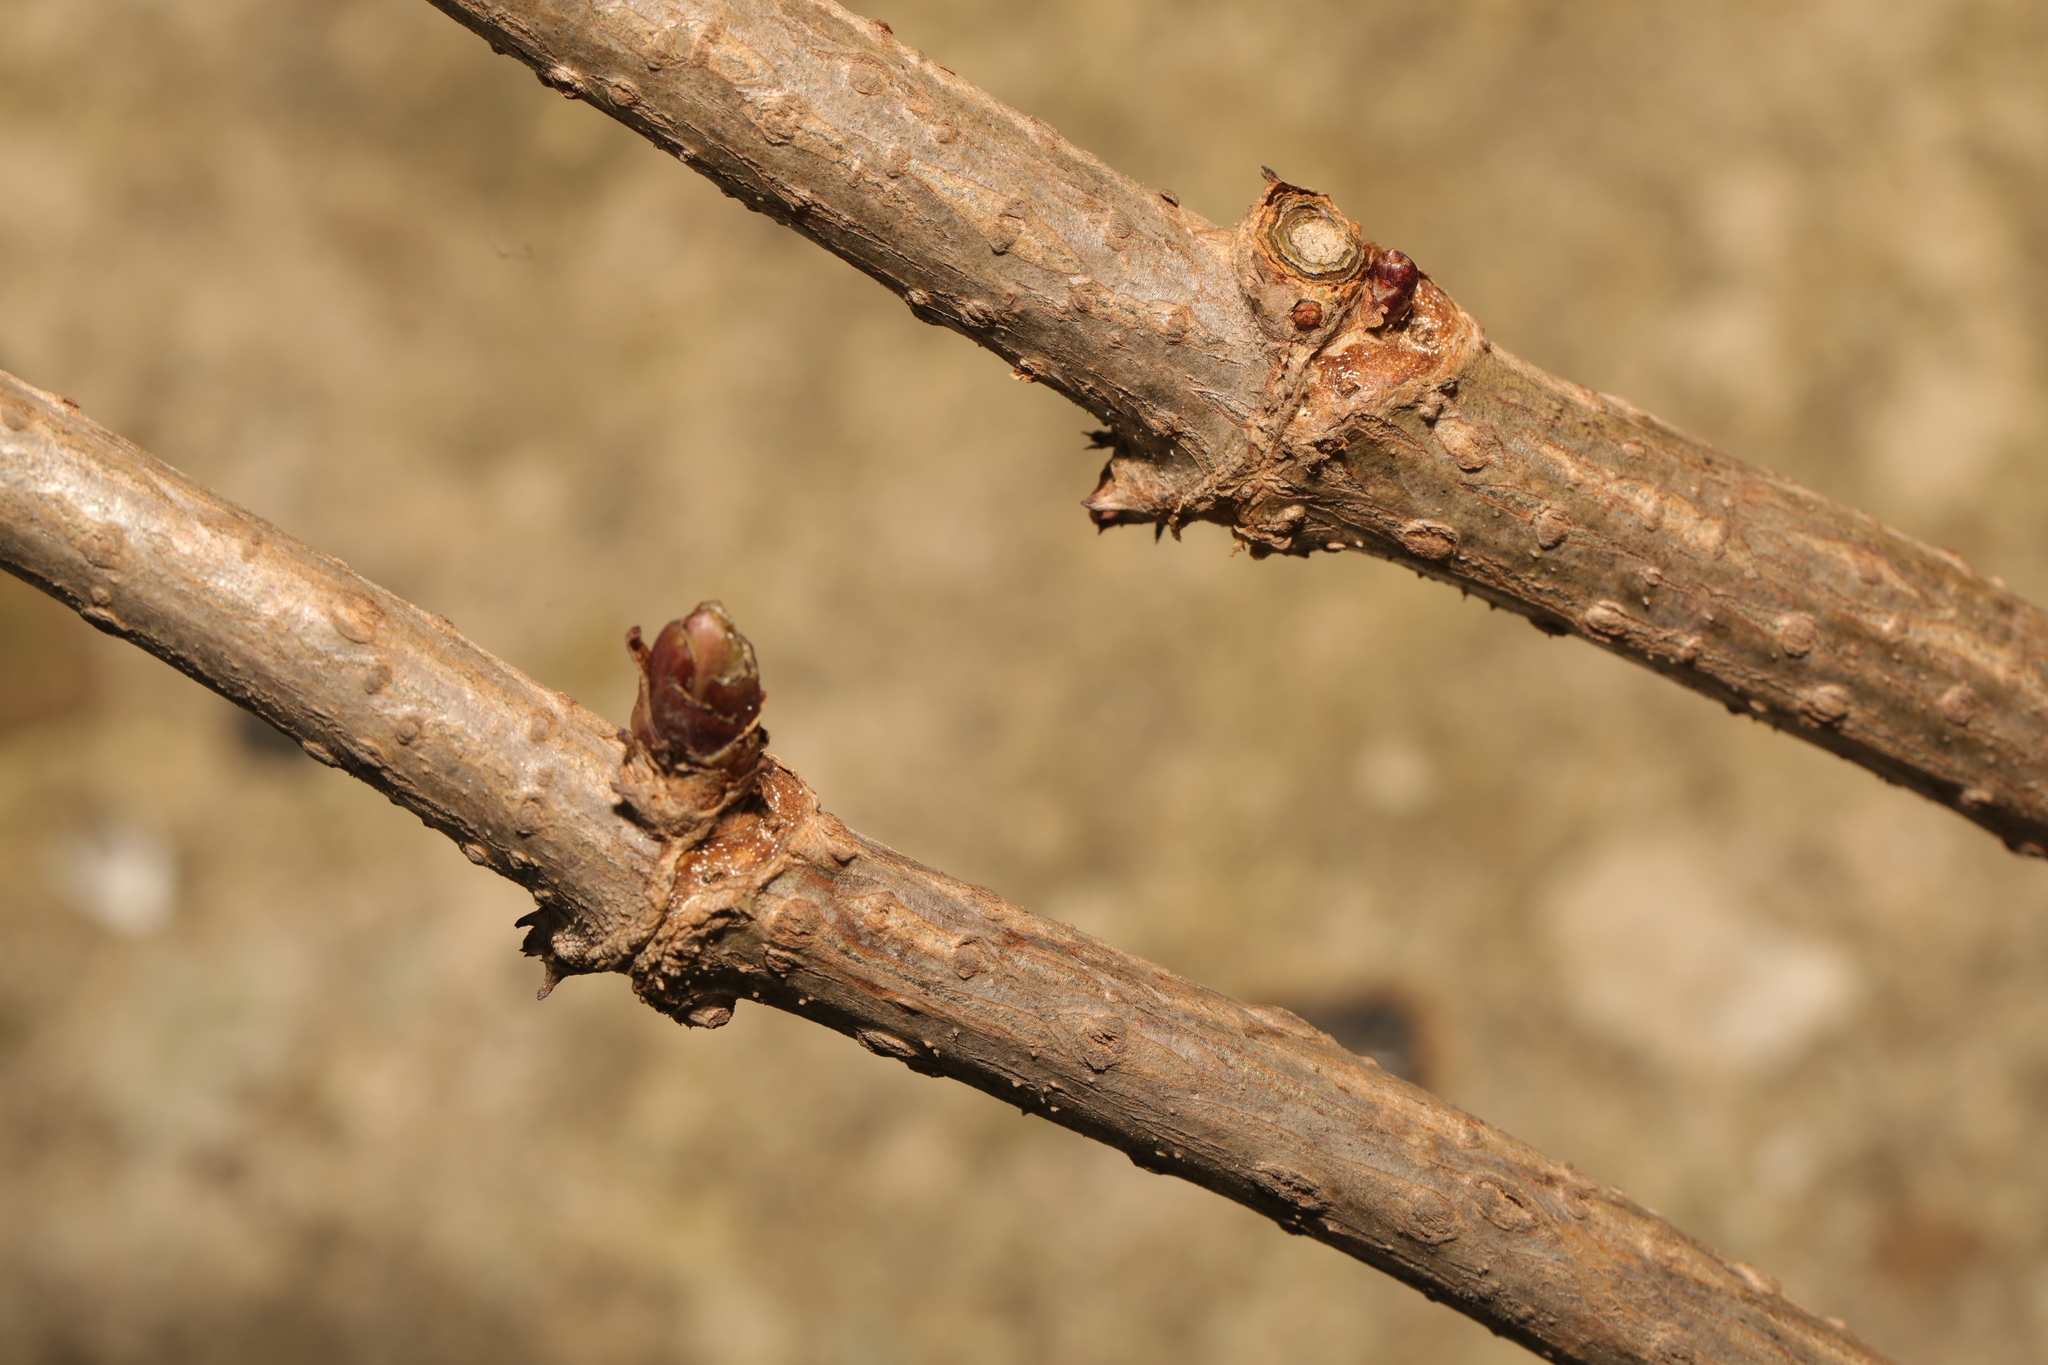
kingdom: Plantae
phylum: Tracheophyta
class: Magnoliopsida
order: Dipsacales
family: Viburnaceae
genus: Sambucus
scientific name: Sambucus nigra
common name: Elder
